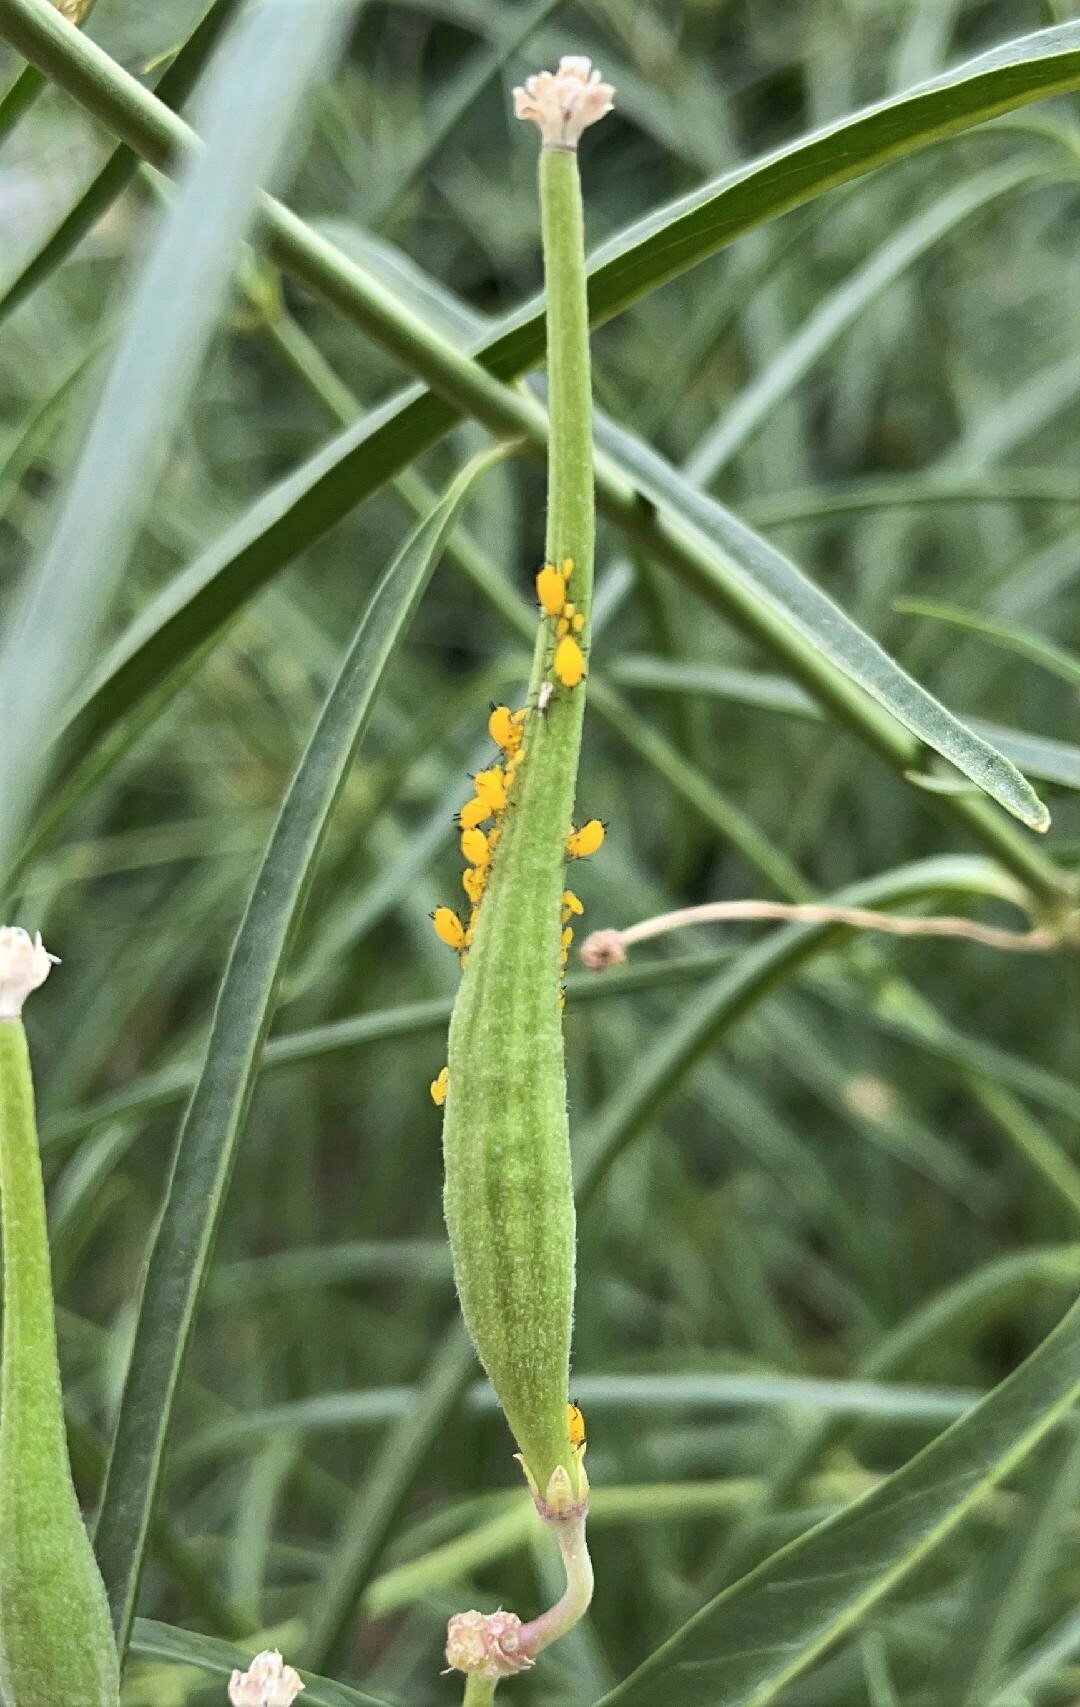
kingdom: Animalia
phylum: Arthropoda
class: Insecta
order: Hemiptera
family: Aphididae
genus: Aphis
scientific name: Aphis nerii
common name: Oleander aphid
